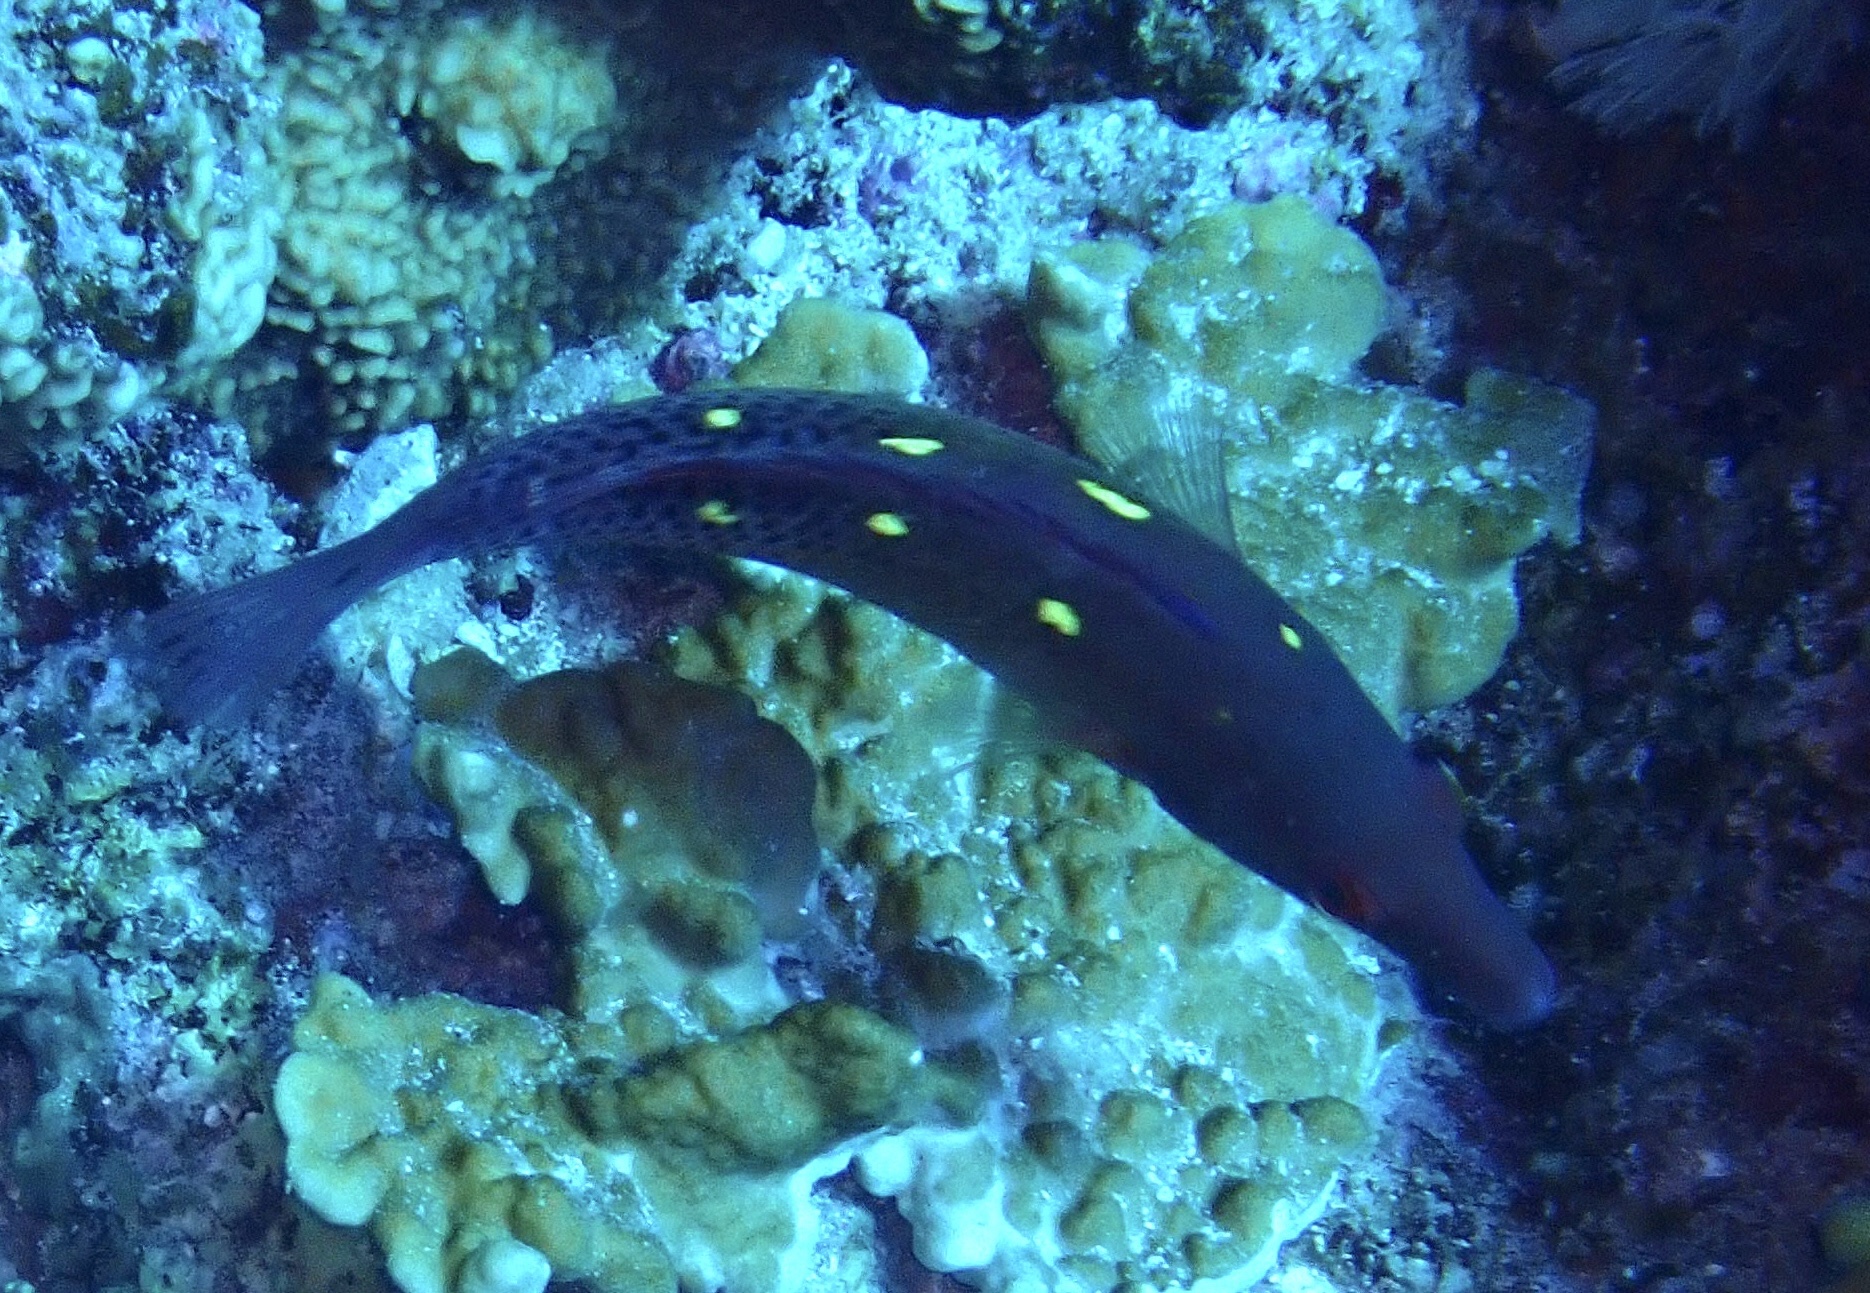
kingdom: Animalia
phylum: Chordata
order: Perciformes
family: Labridae
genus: Bodianus
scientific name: Bodianus diana
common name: Diana's hogfish
